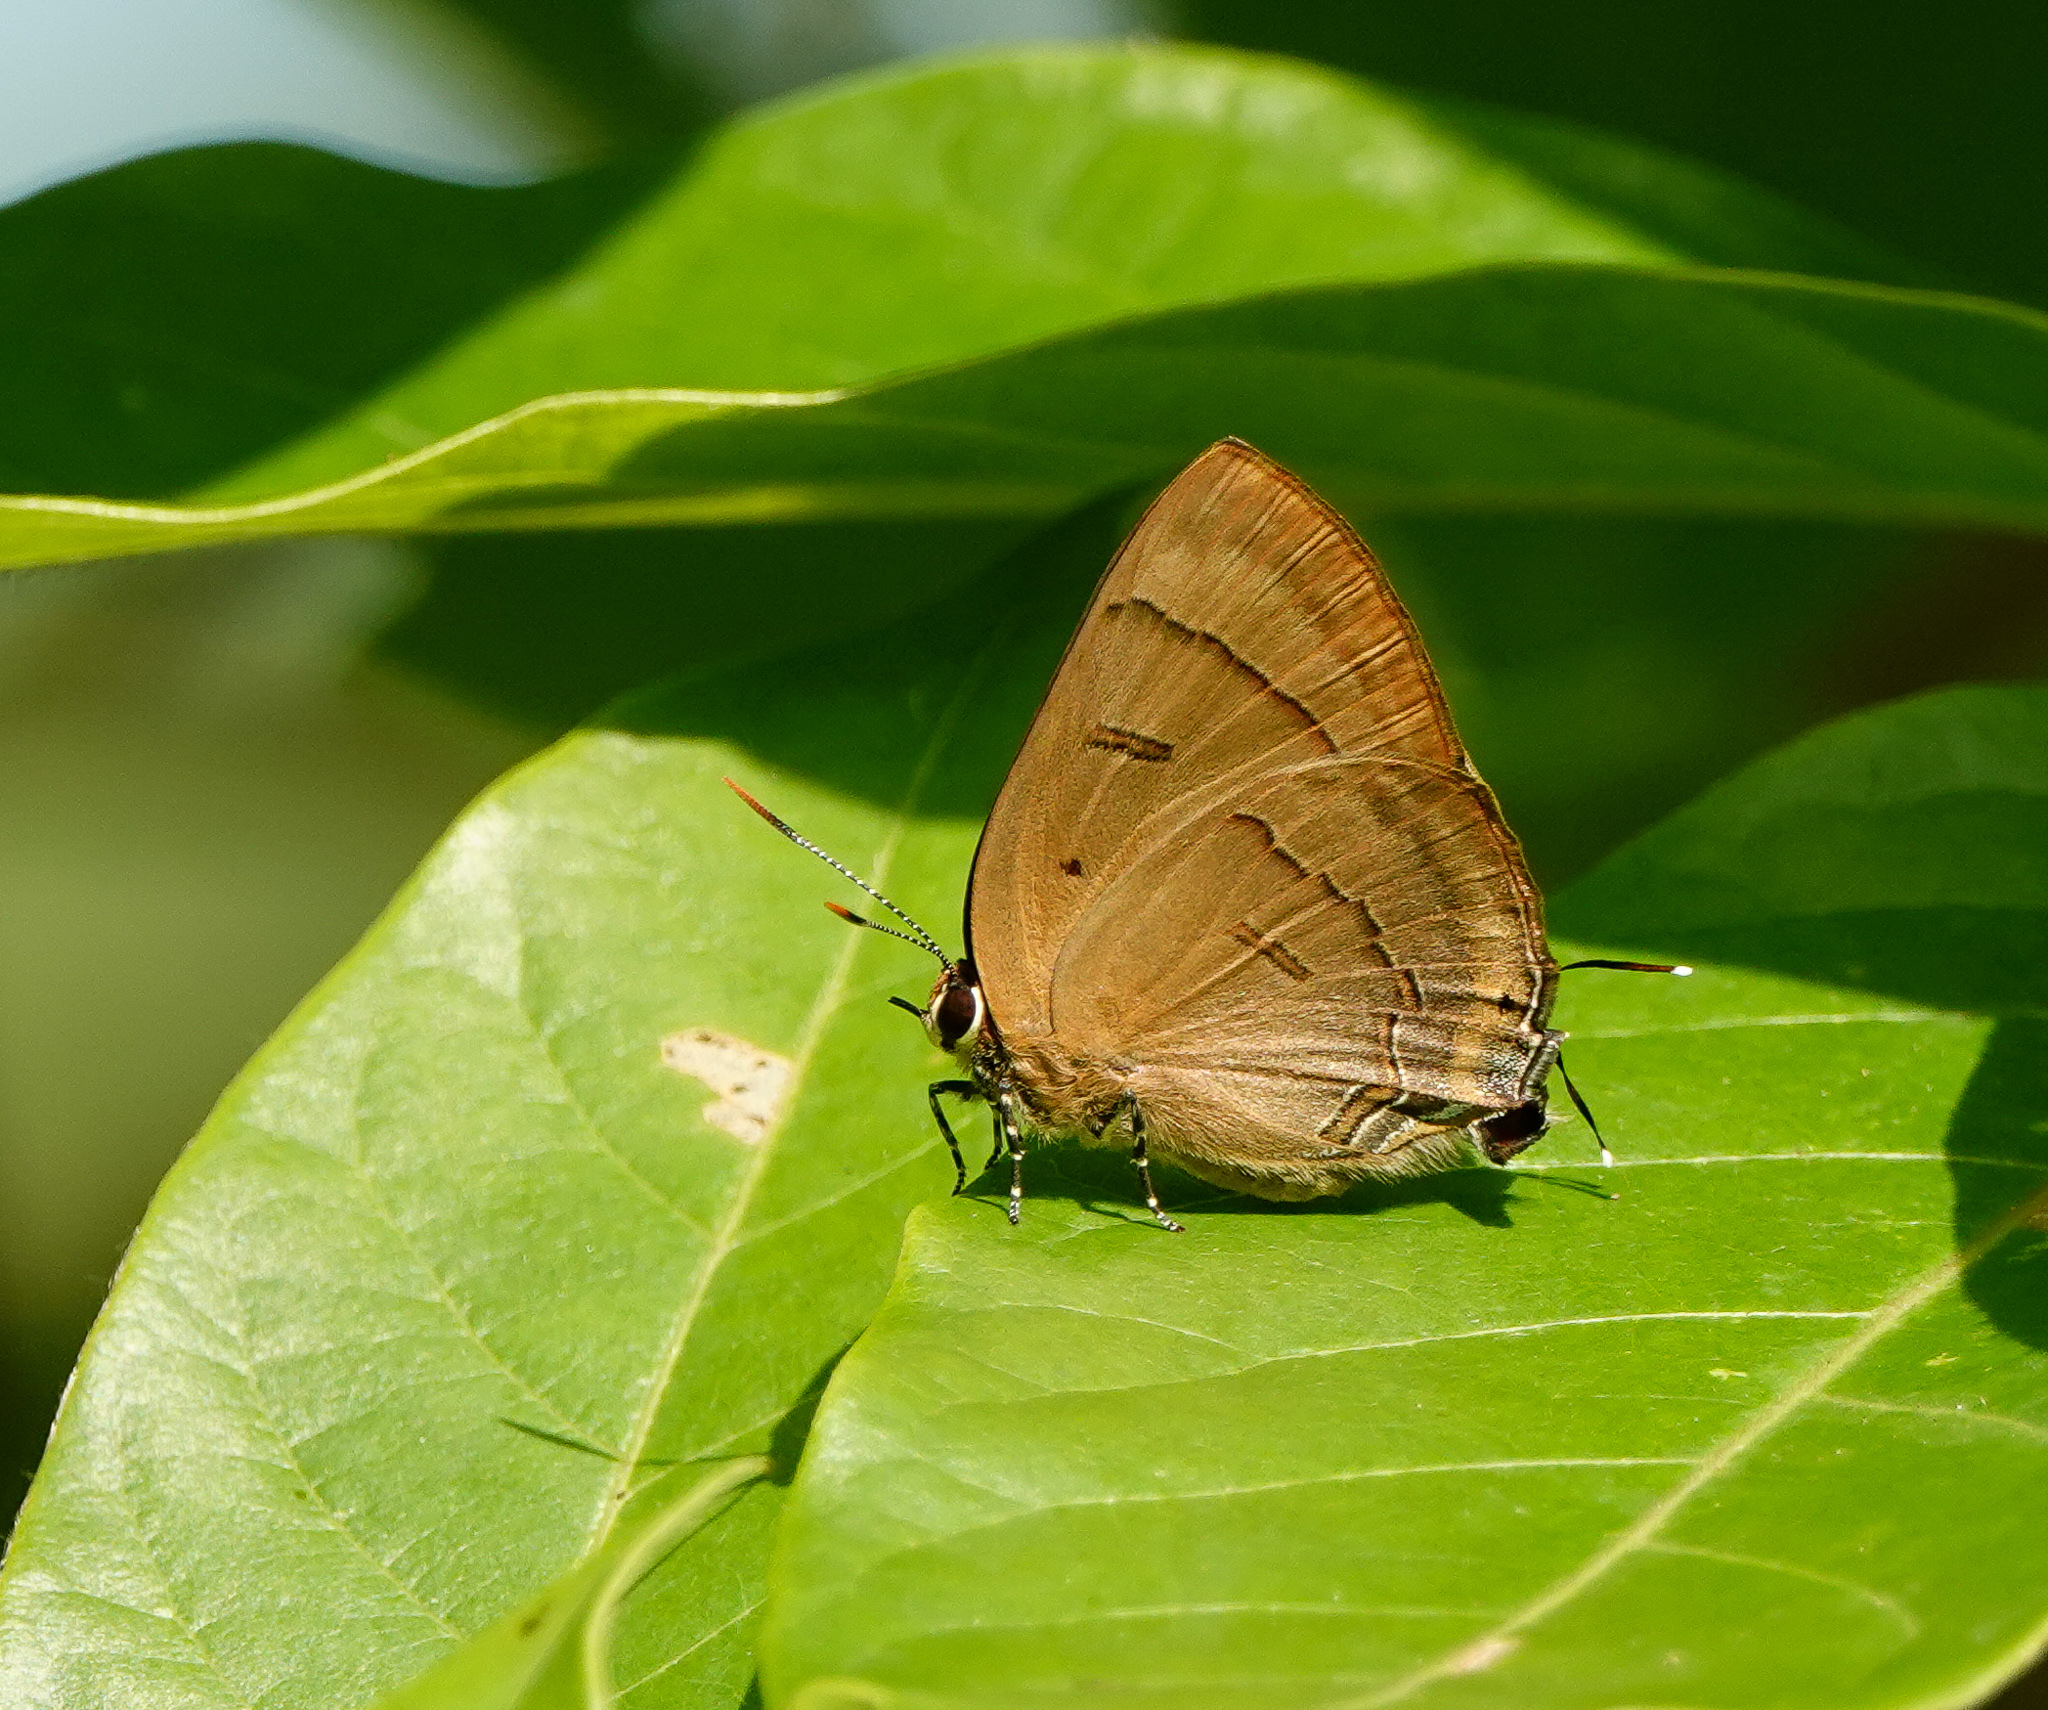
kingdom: Animalia
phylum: Arthropoda
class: Insecta
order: Lepidoptera
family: Lycaenidae
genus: Rapala
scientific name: Rapala pheretima
